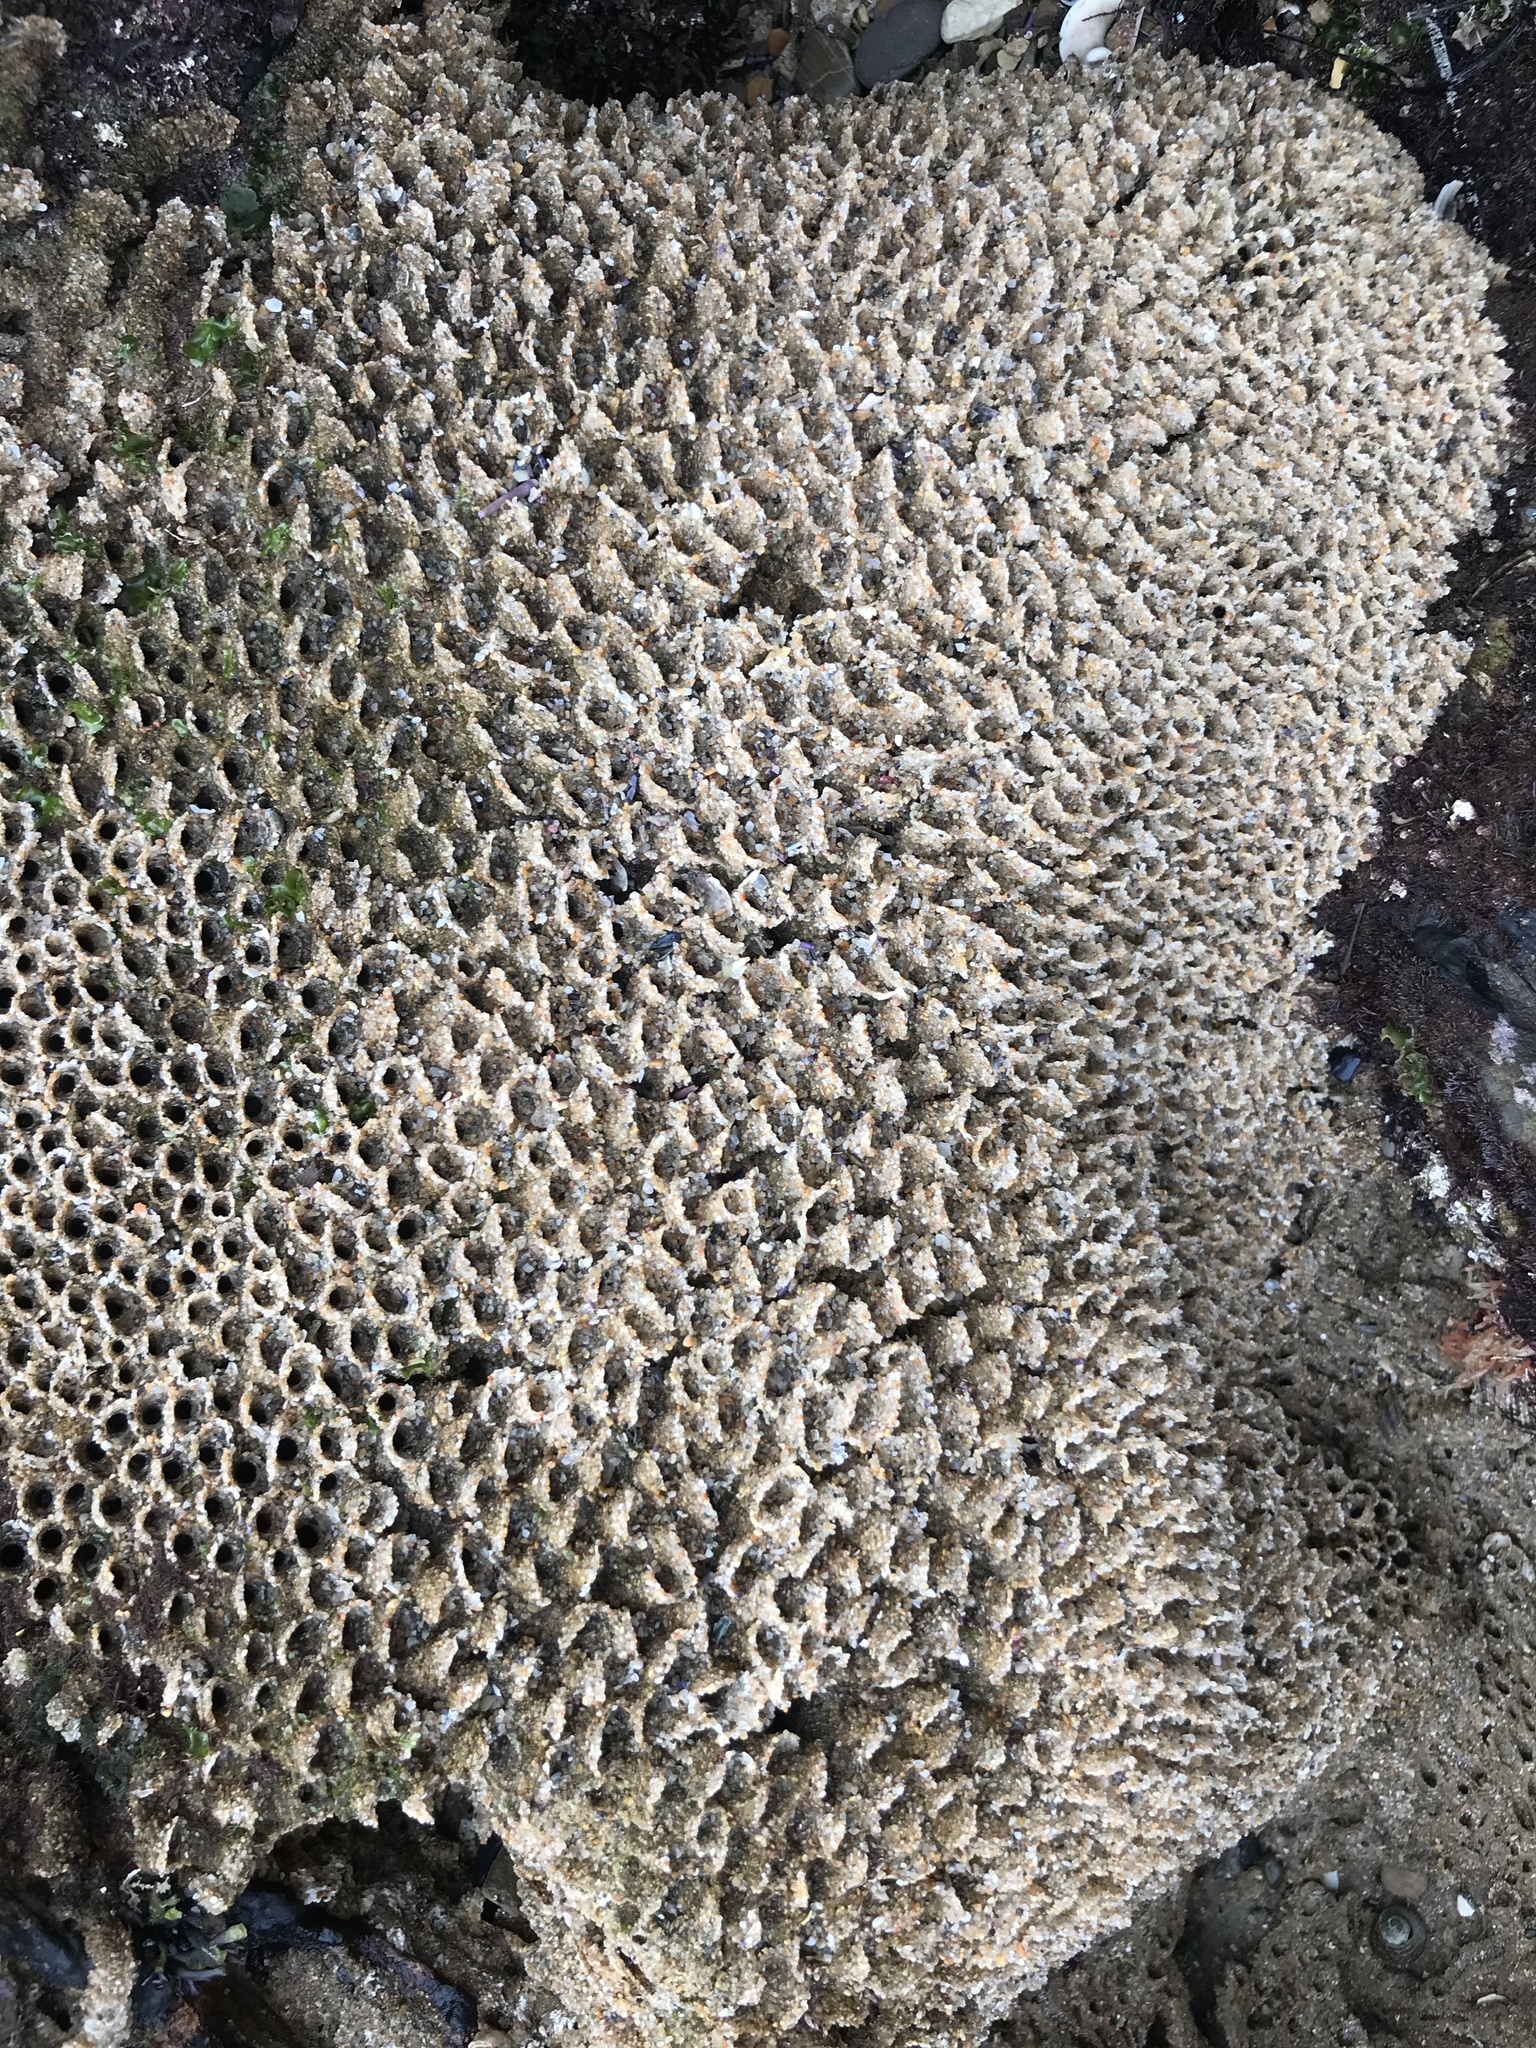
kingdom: Animalia
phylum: Annelida
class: Polychaeta
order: Sabellida
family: Sabellariidae
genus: Phragmatopoma
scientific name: Phragmatopoma californica
